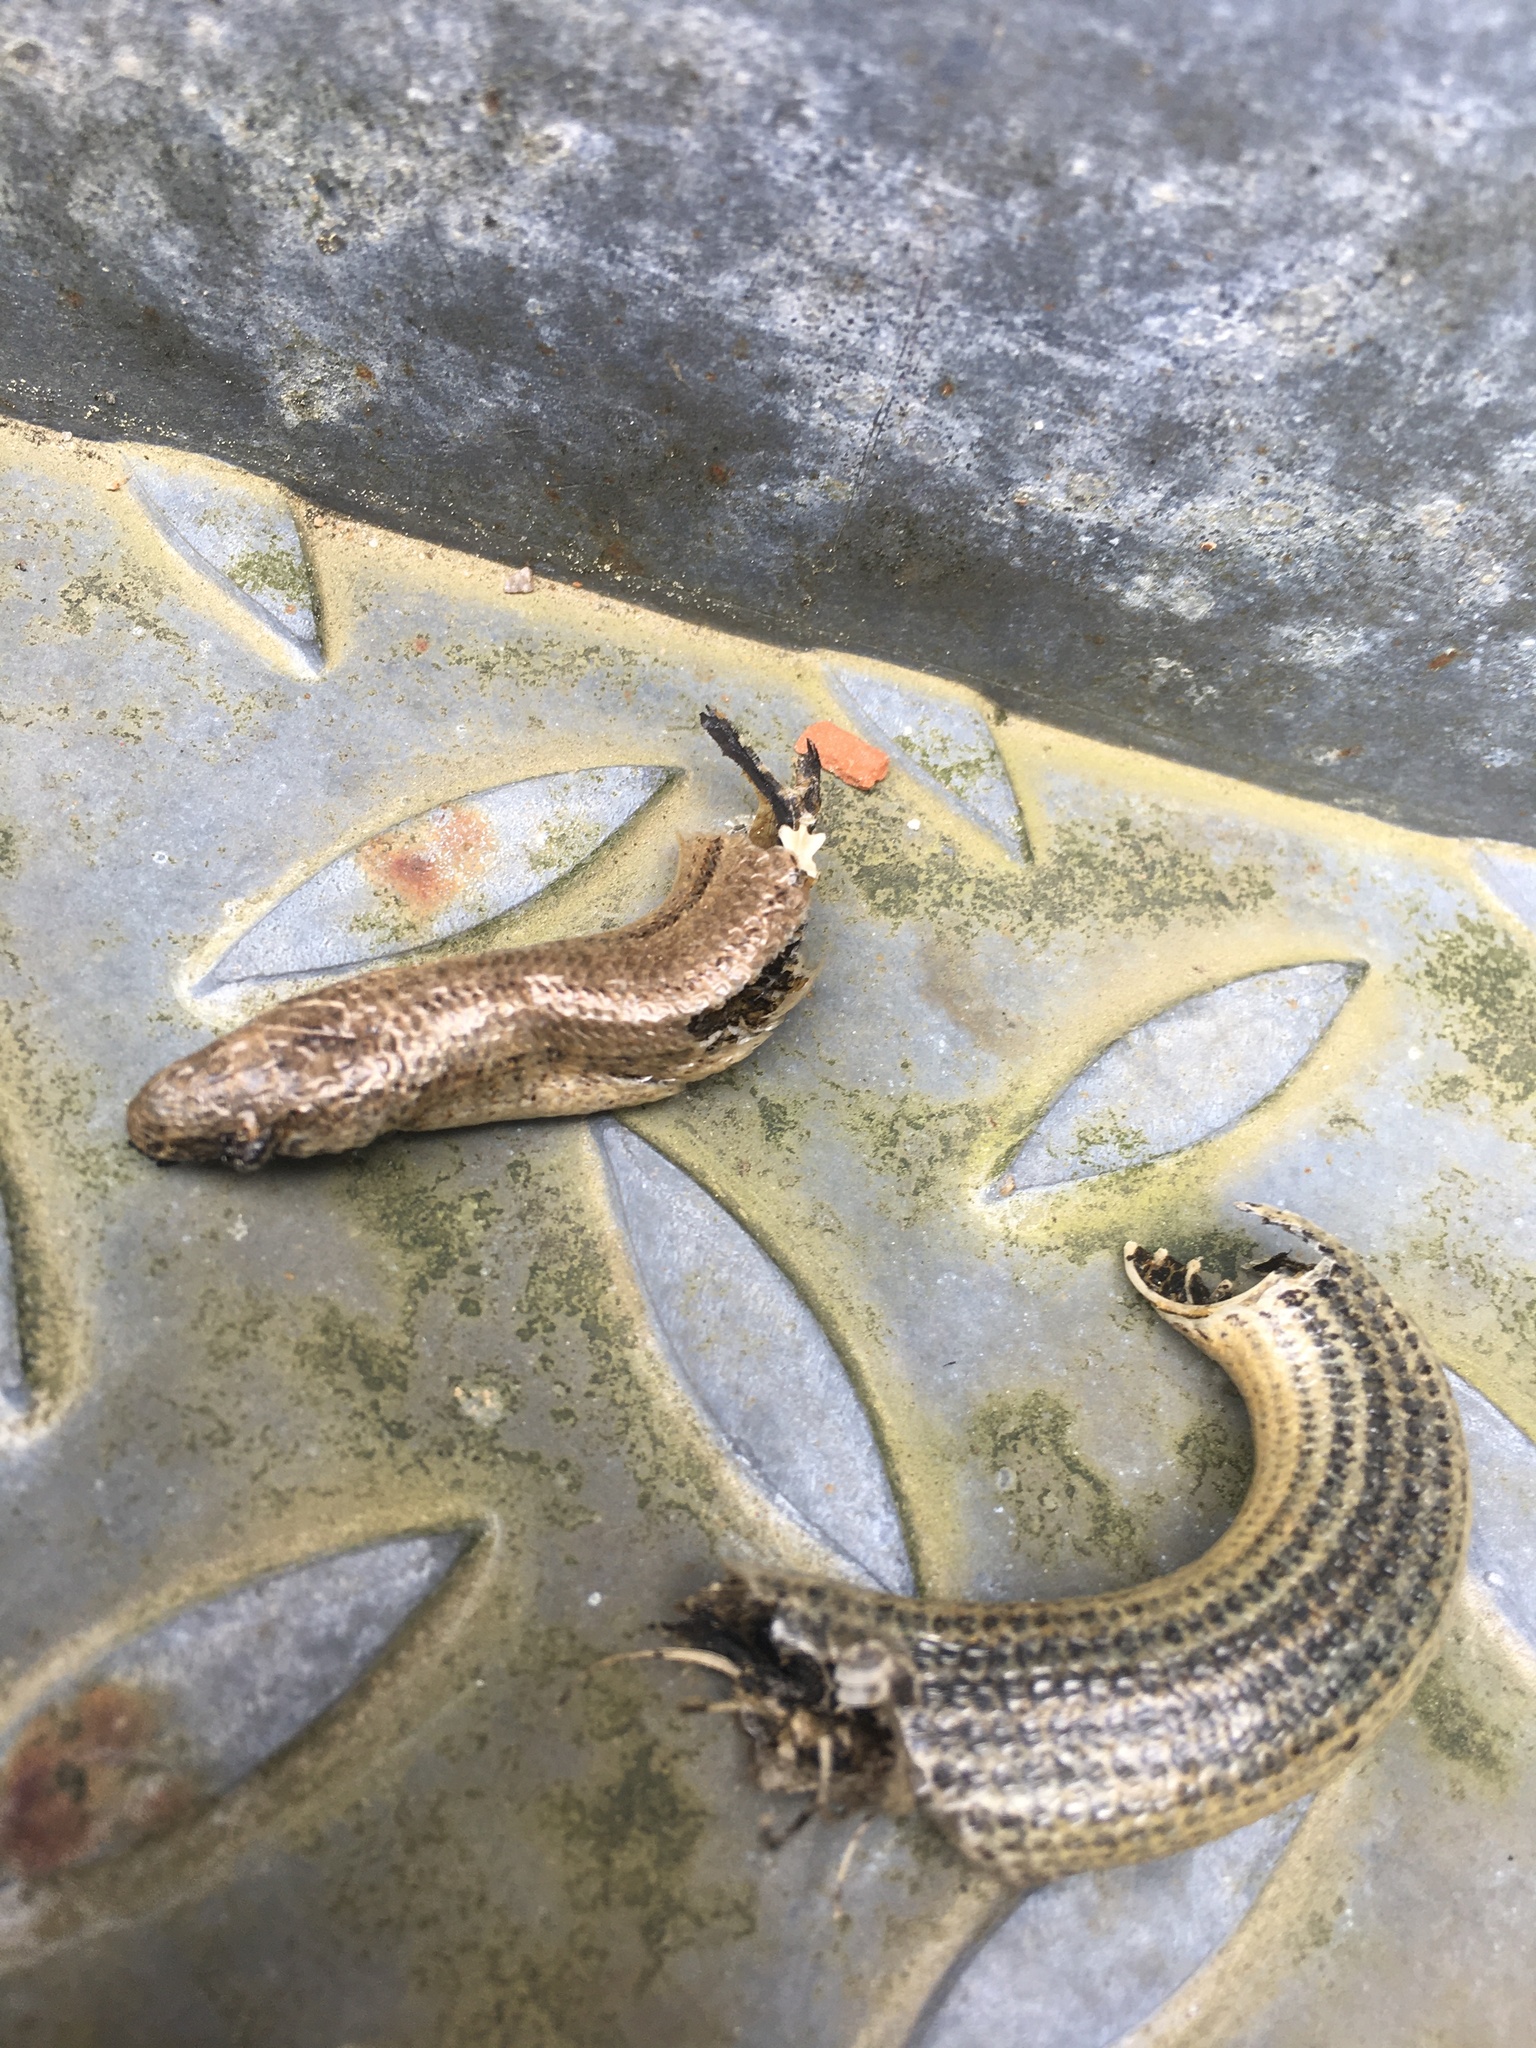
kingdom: Animalia
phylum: Chordata
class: Squamata
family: Anguidae
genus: Anguis
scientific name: Anguis fragilis
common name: Slow worm
